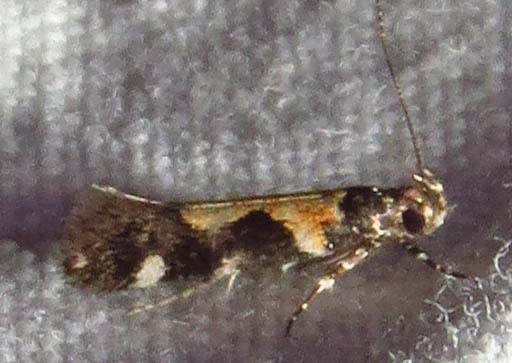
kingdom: Animalia
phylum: Arthropoda
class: Insecta
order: Lepidoptera
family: Gelechiidae
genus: Stegasta
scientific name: Stegasta bosqueella
